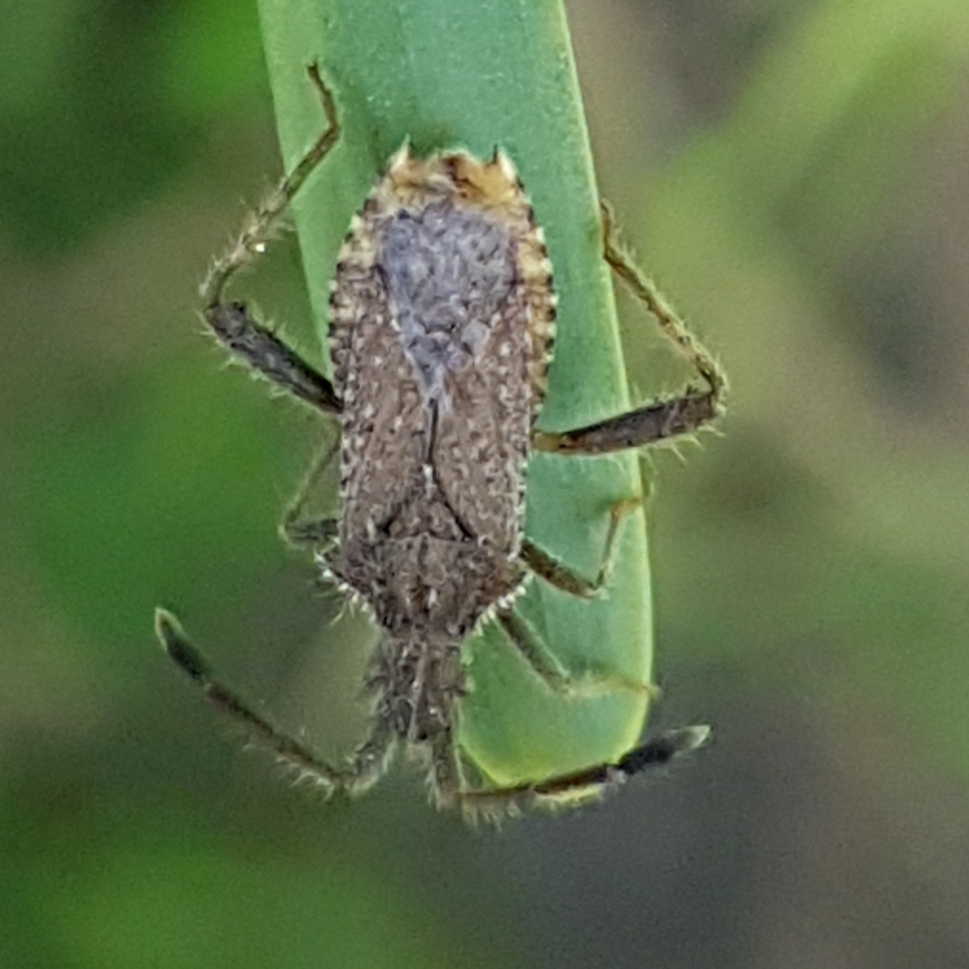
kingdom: Animalia
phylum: Arthropoda
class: Insecta
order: Hemiptera
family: Coreidae
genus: Coriomeris
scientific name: Coriomeris hirticornis
